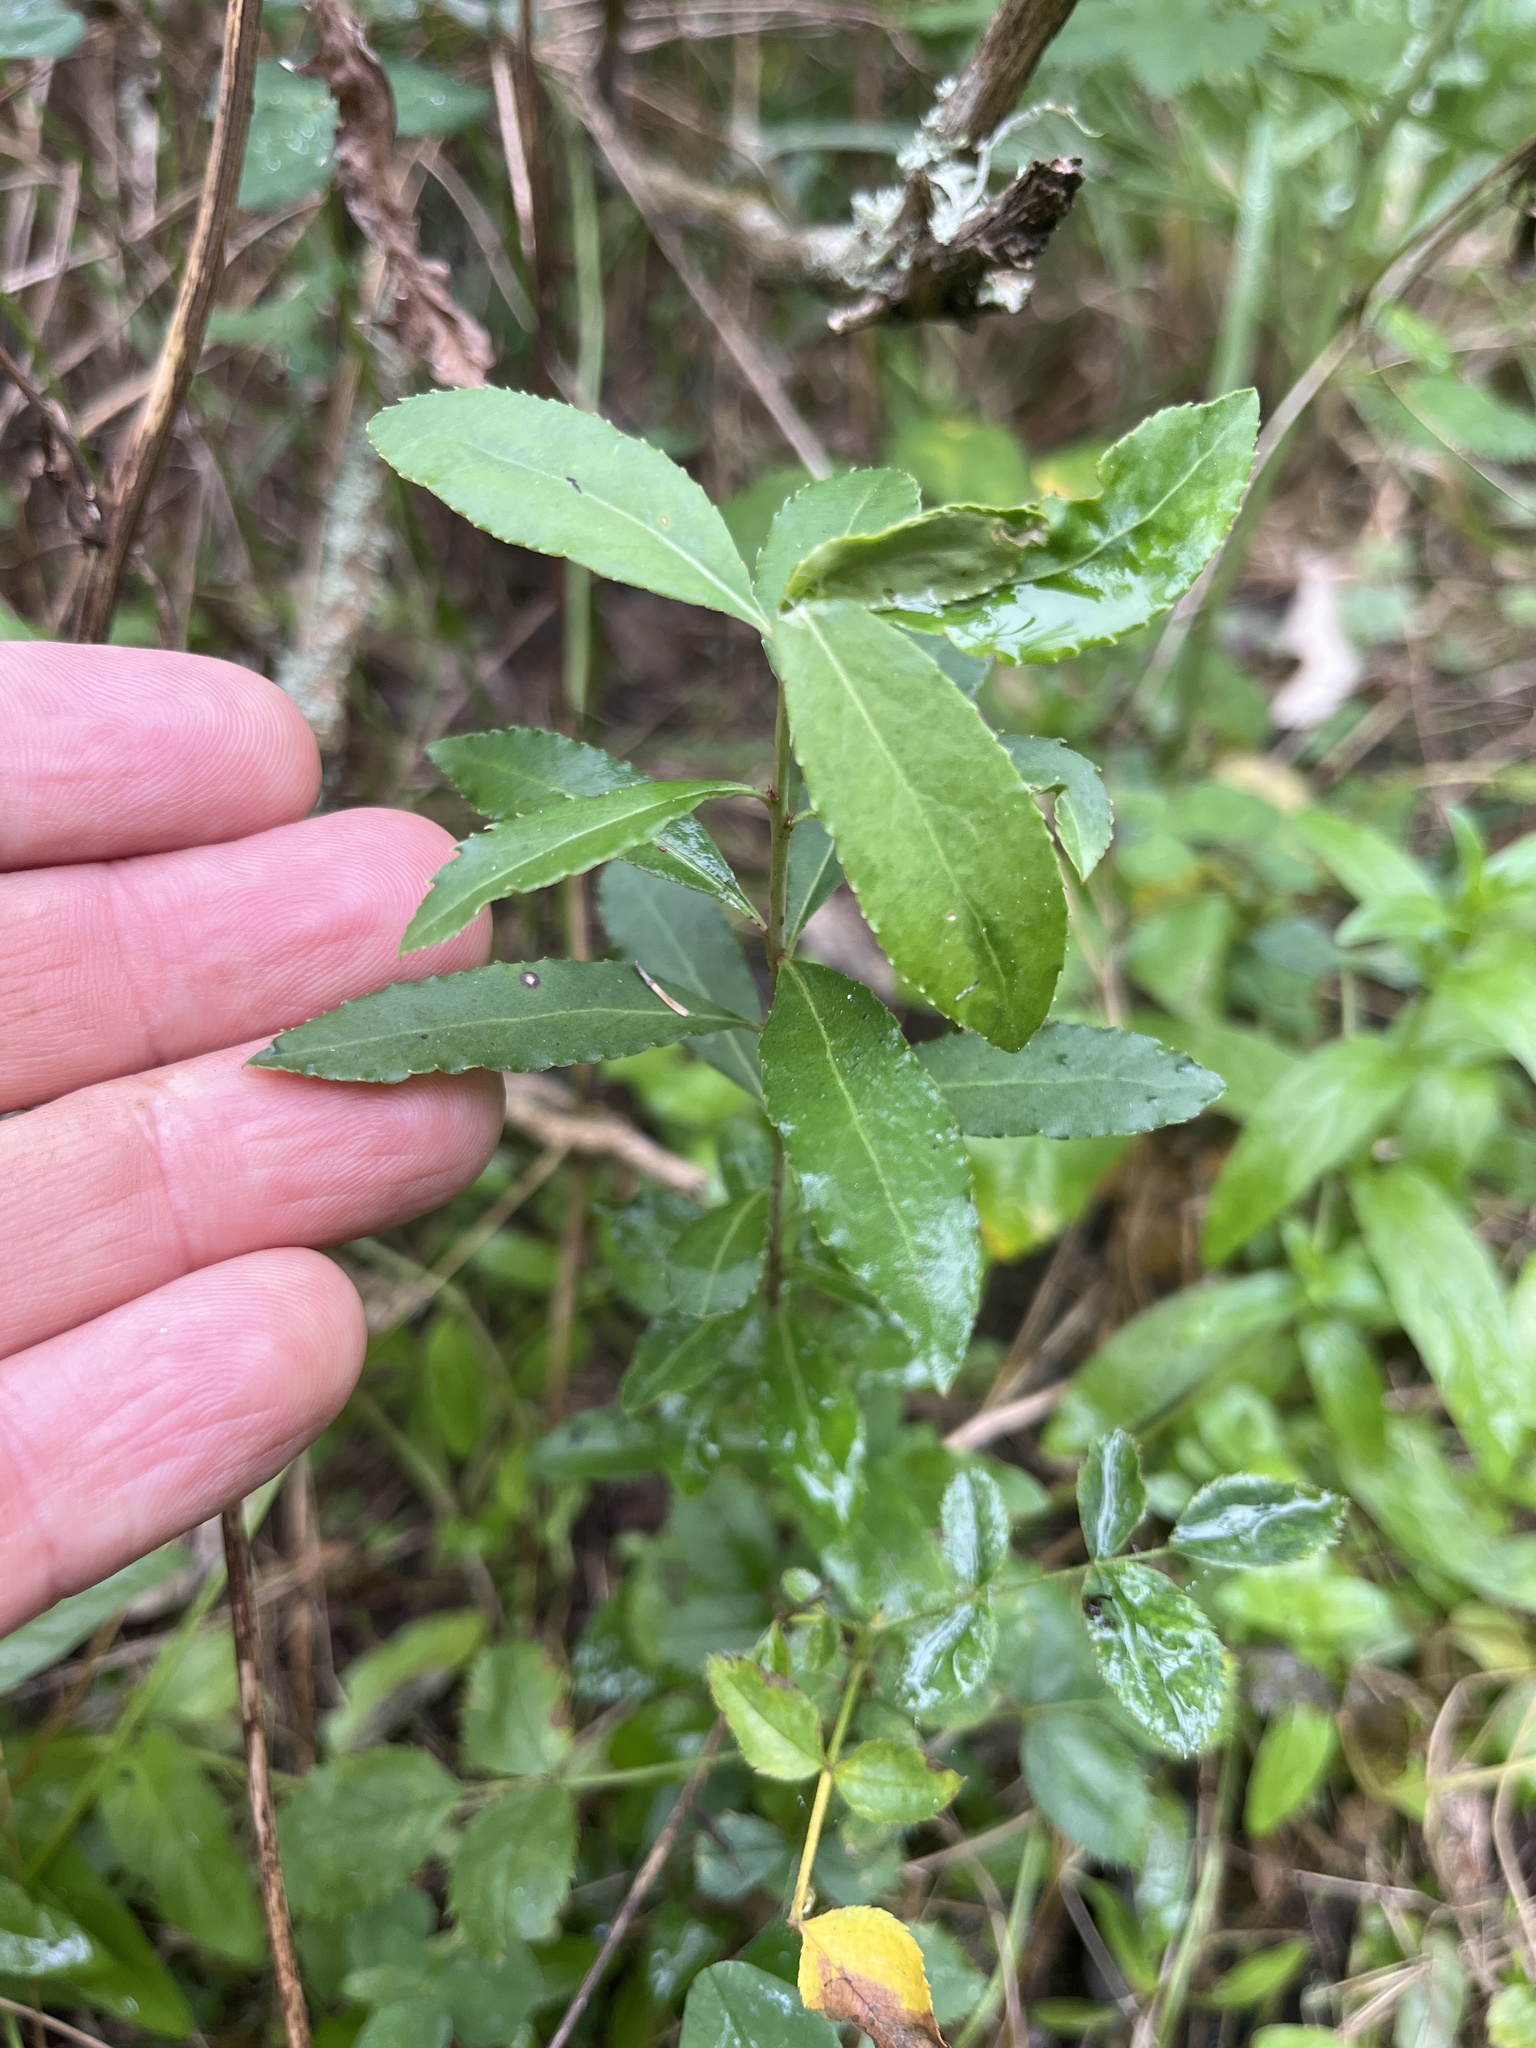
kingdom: Plantae
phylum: Tracheophyta
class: Magnoliopsida
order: Celastrales
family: Celastraceae
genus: Maytenus
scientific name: Maytenus boaria
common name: Mayten
